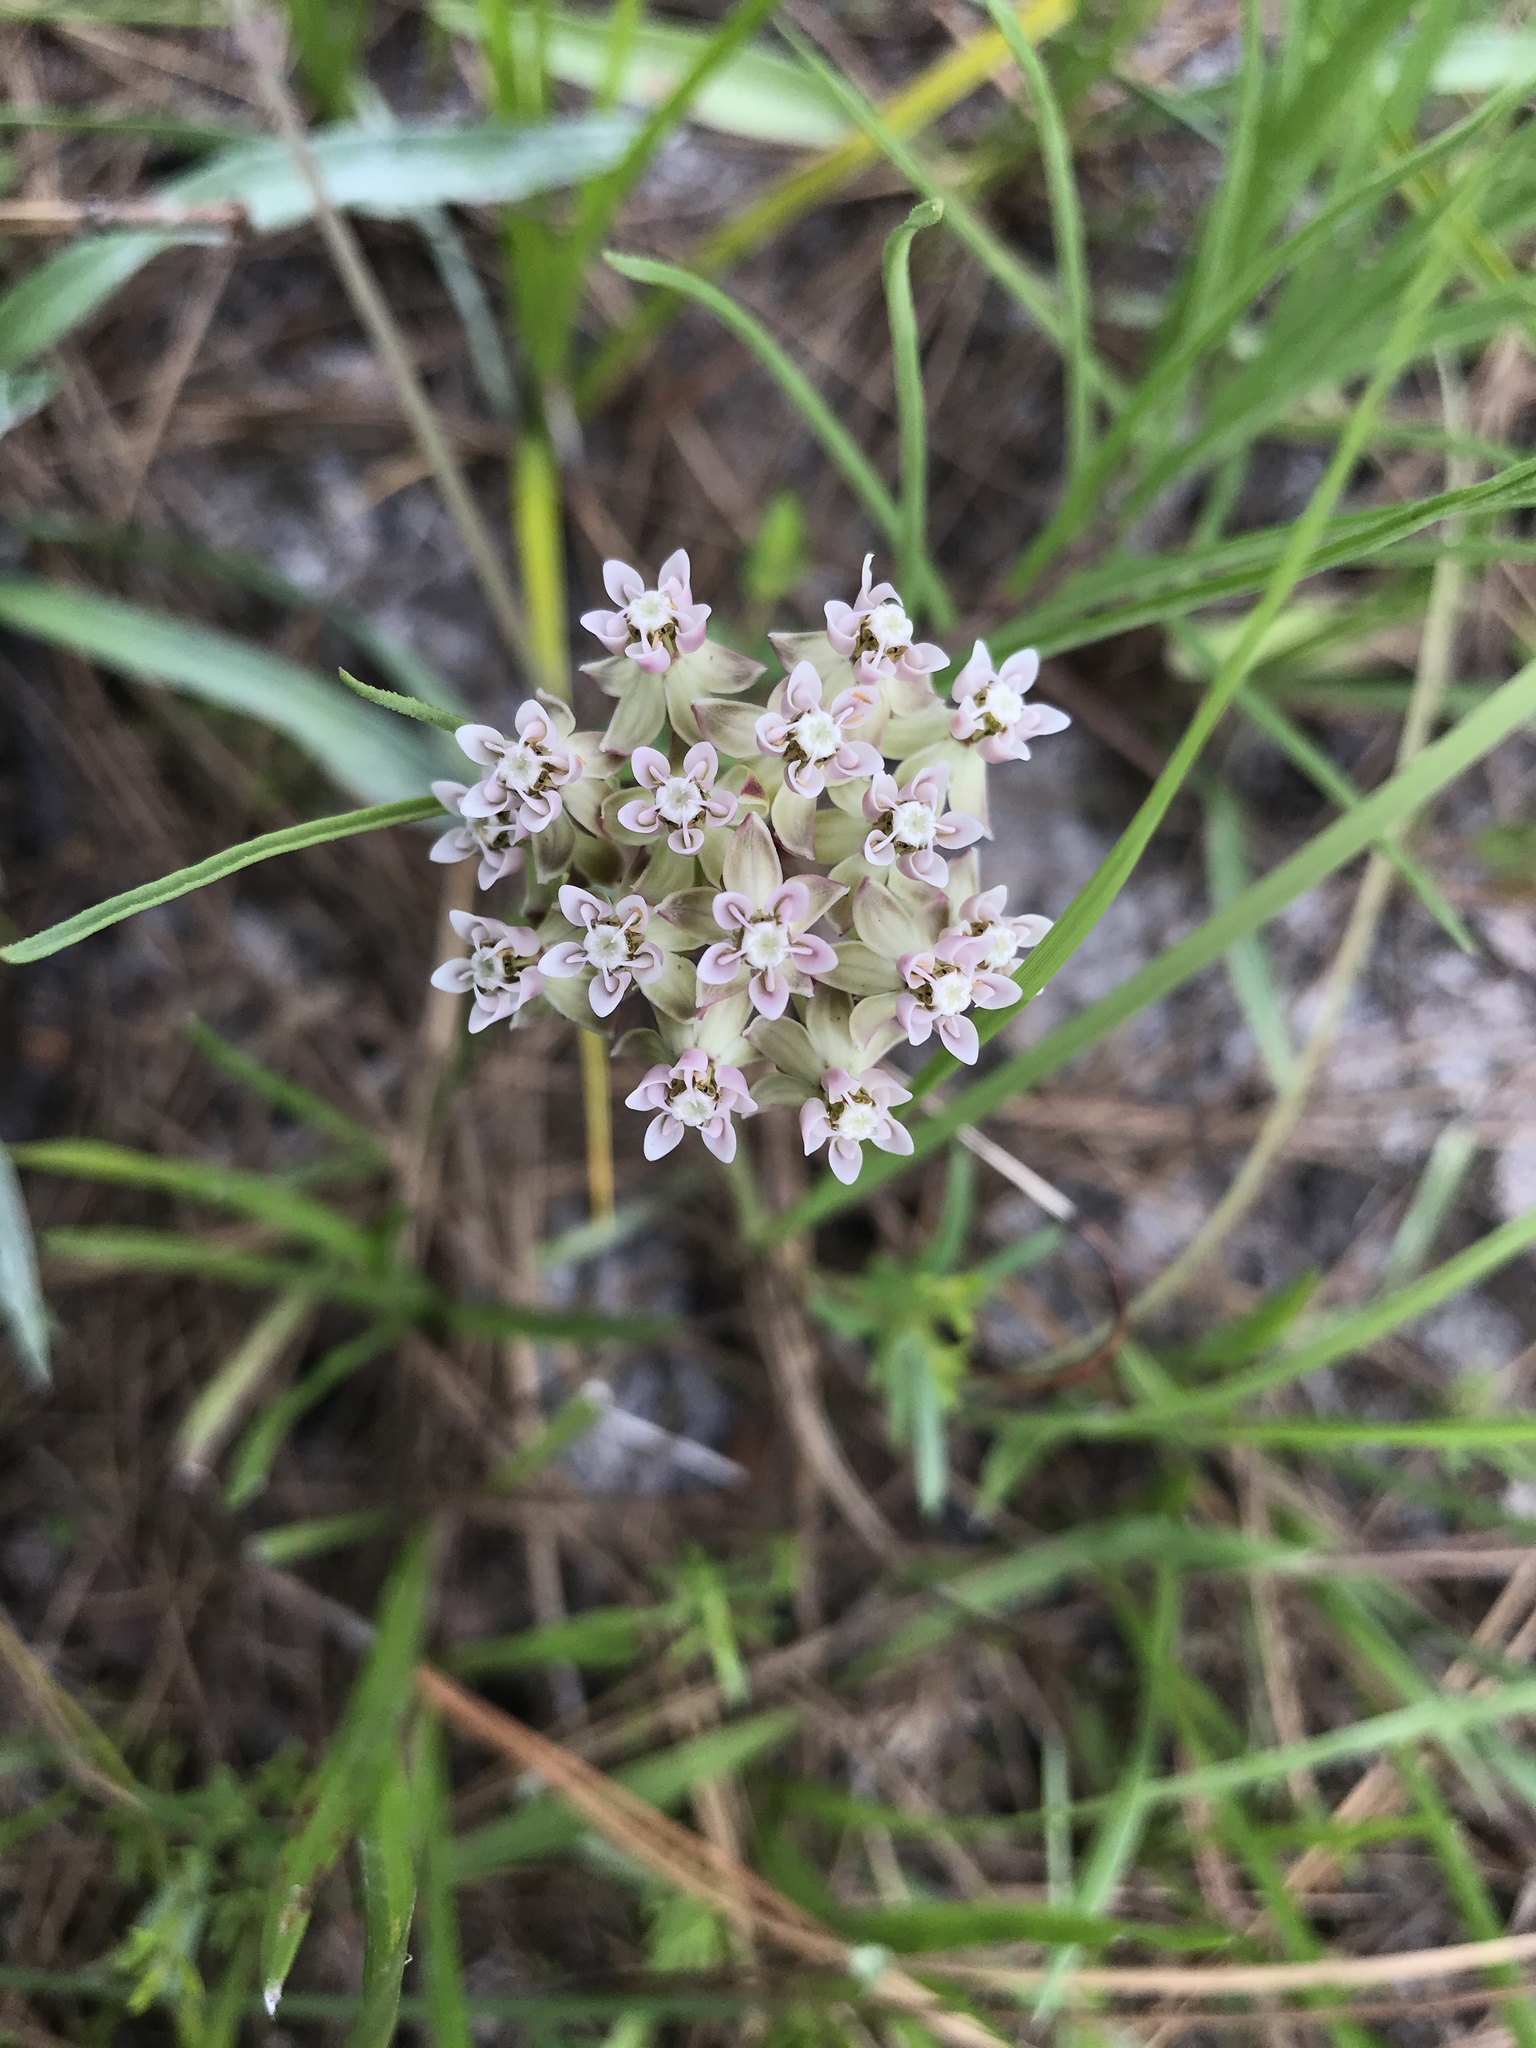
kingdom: Plantae
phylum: Tracheophyta
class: Magnoliopsida
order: Gentianales
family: Apocynaceae
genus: Asclepias
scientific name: Asclepias michauxii
